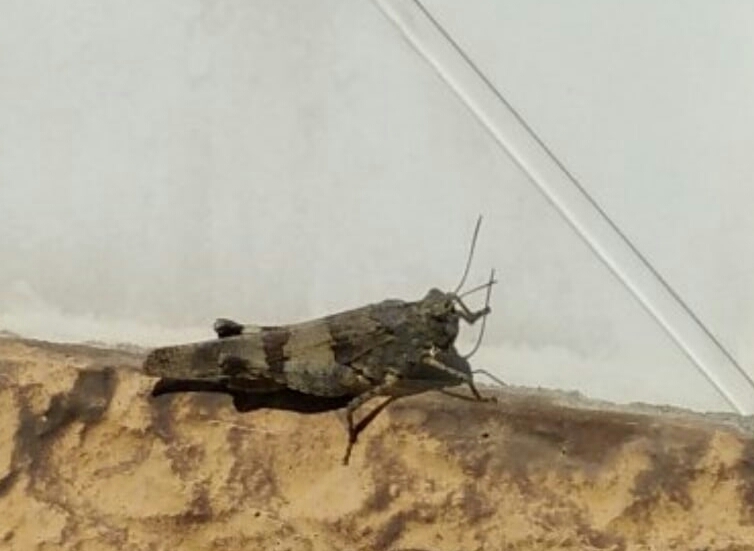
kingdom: Animalia
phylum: Arthropoda
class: Insecta
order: Orthoptera
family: Acrididae
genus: Oedipoda
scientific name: Oedipoda caerulescens
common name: Blue-winged grasshopper
